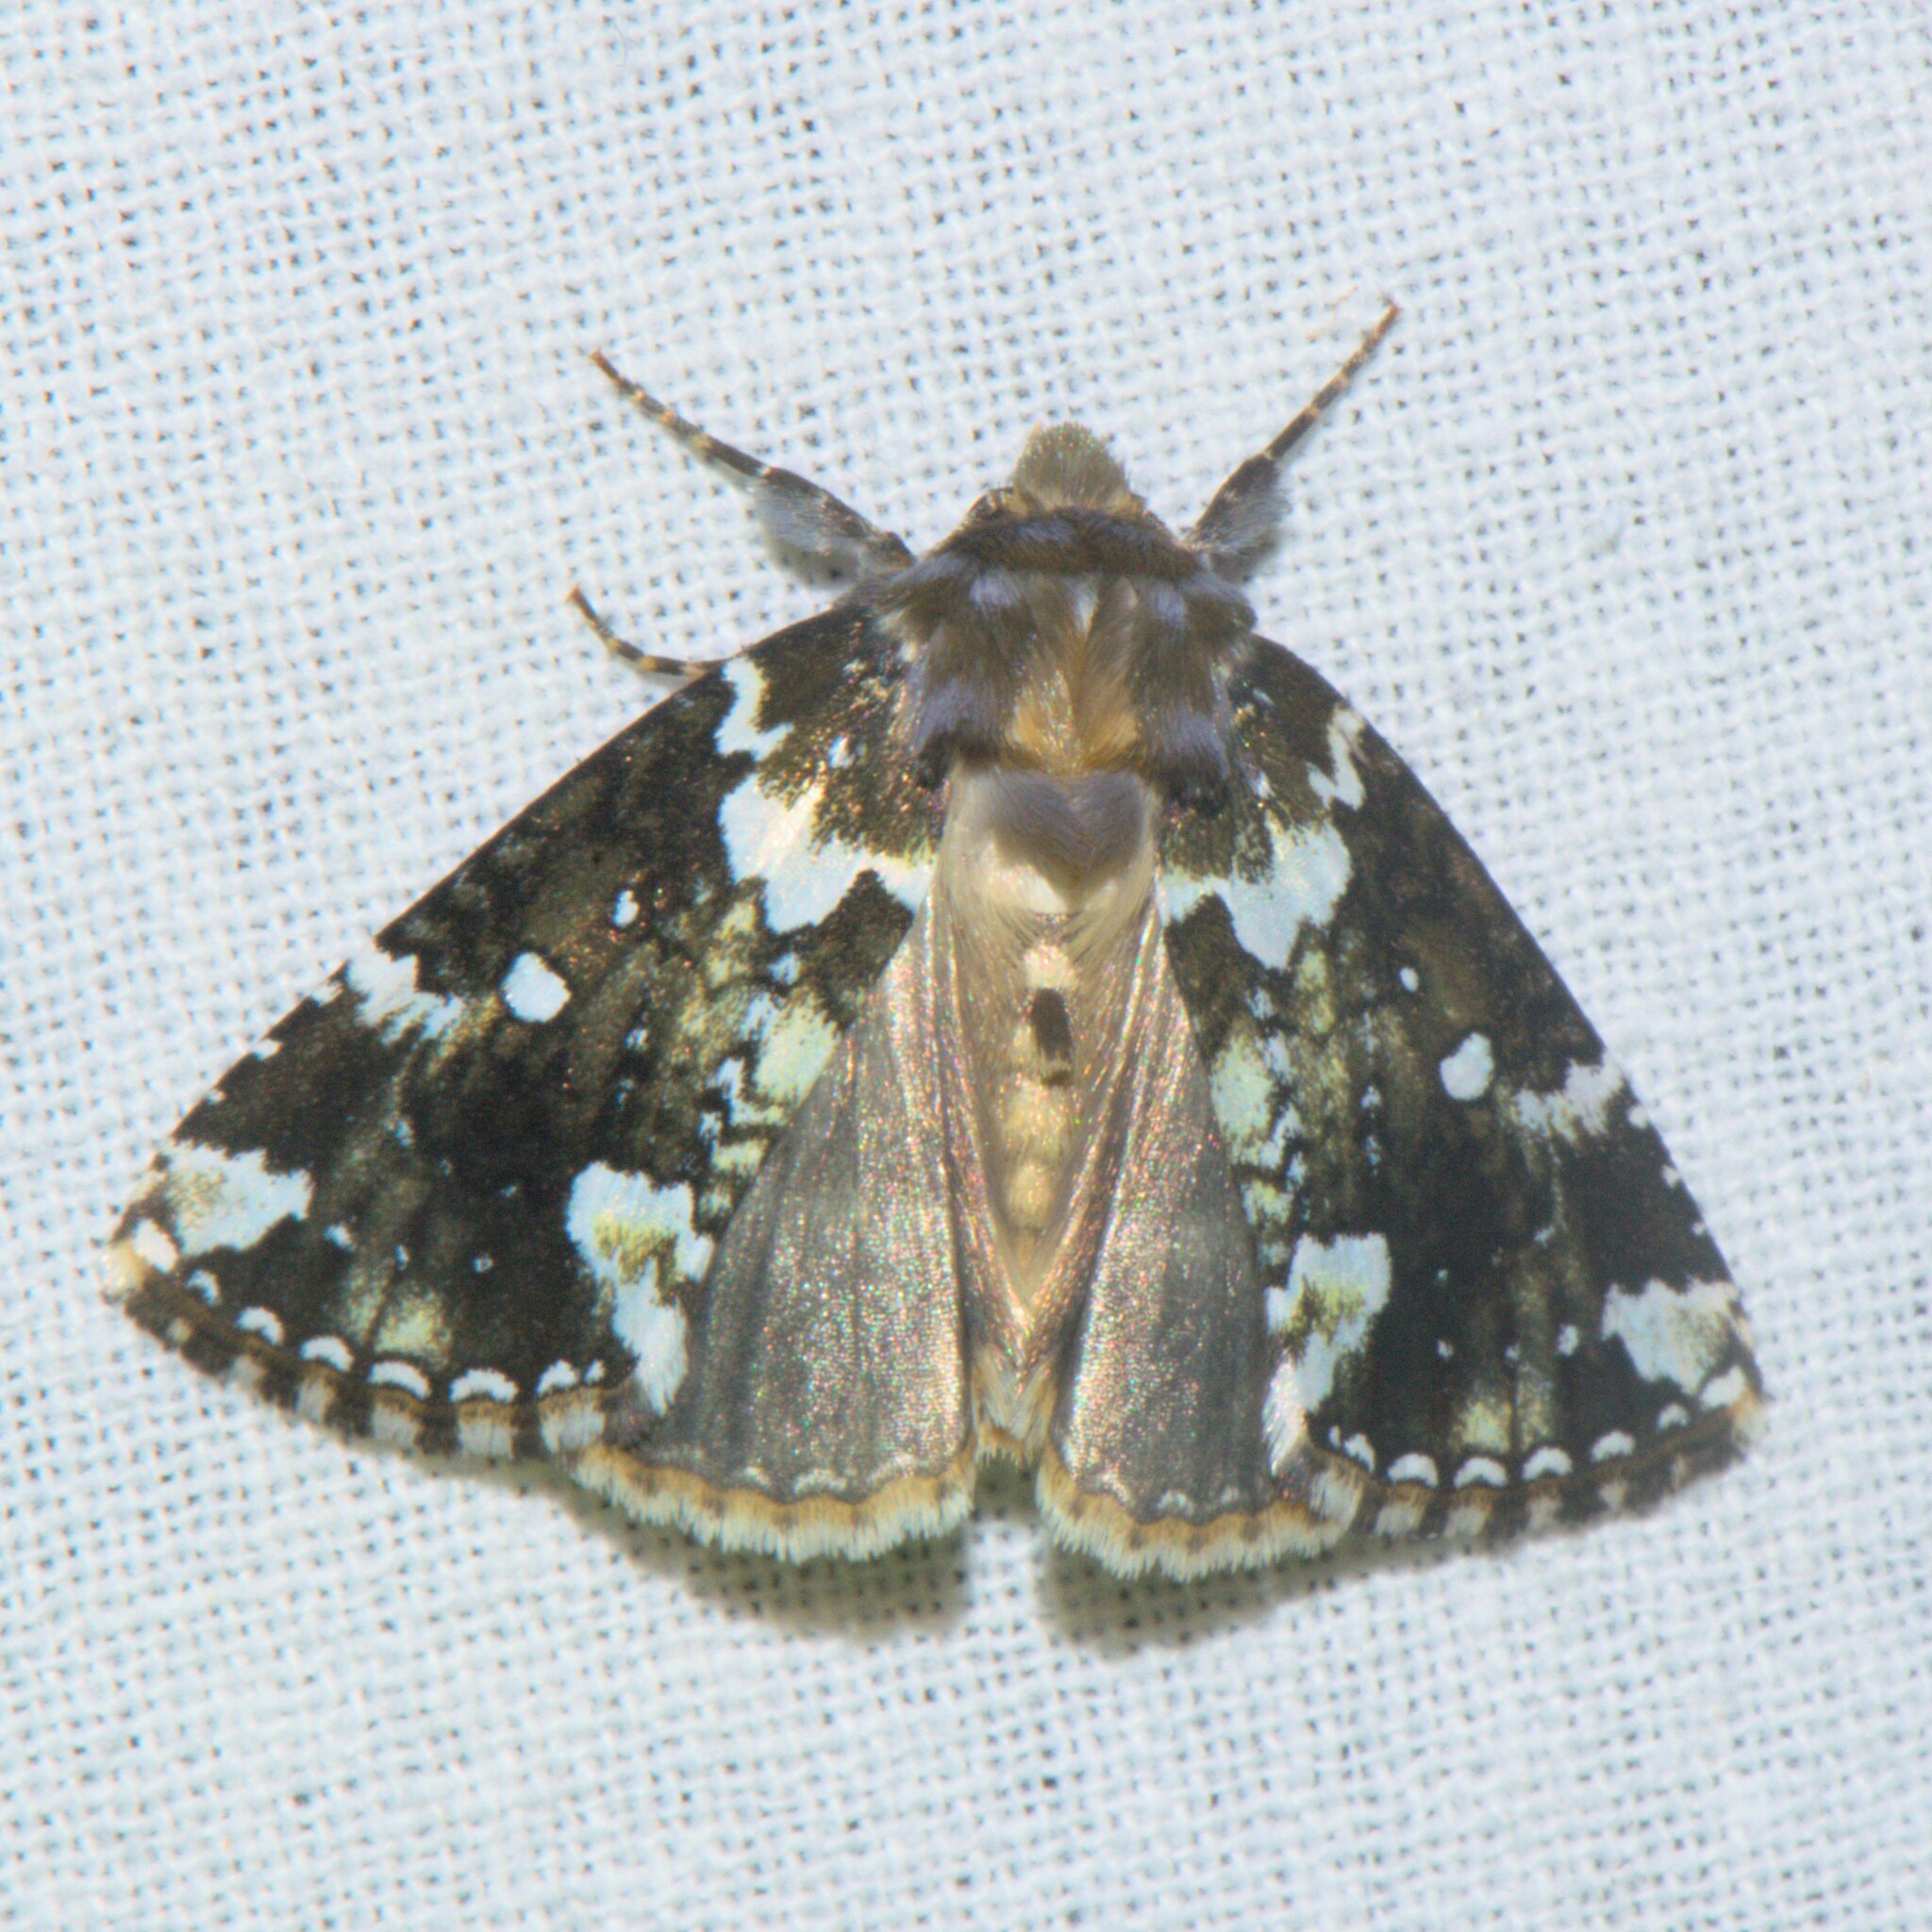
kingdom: Animalia
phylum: Arthropoda
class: Insecta
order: Lepidoptera
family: Drepanidae
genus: Gaurena
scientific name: Gaurena florens
